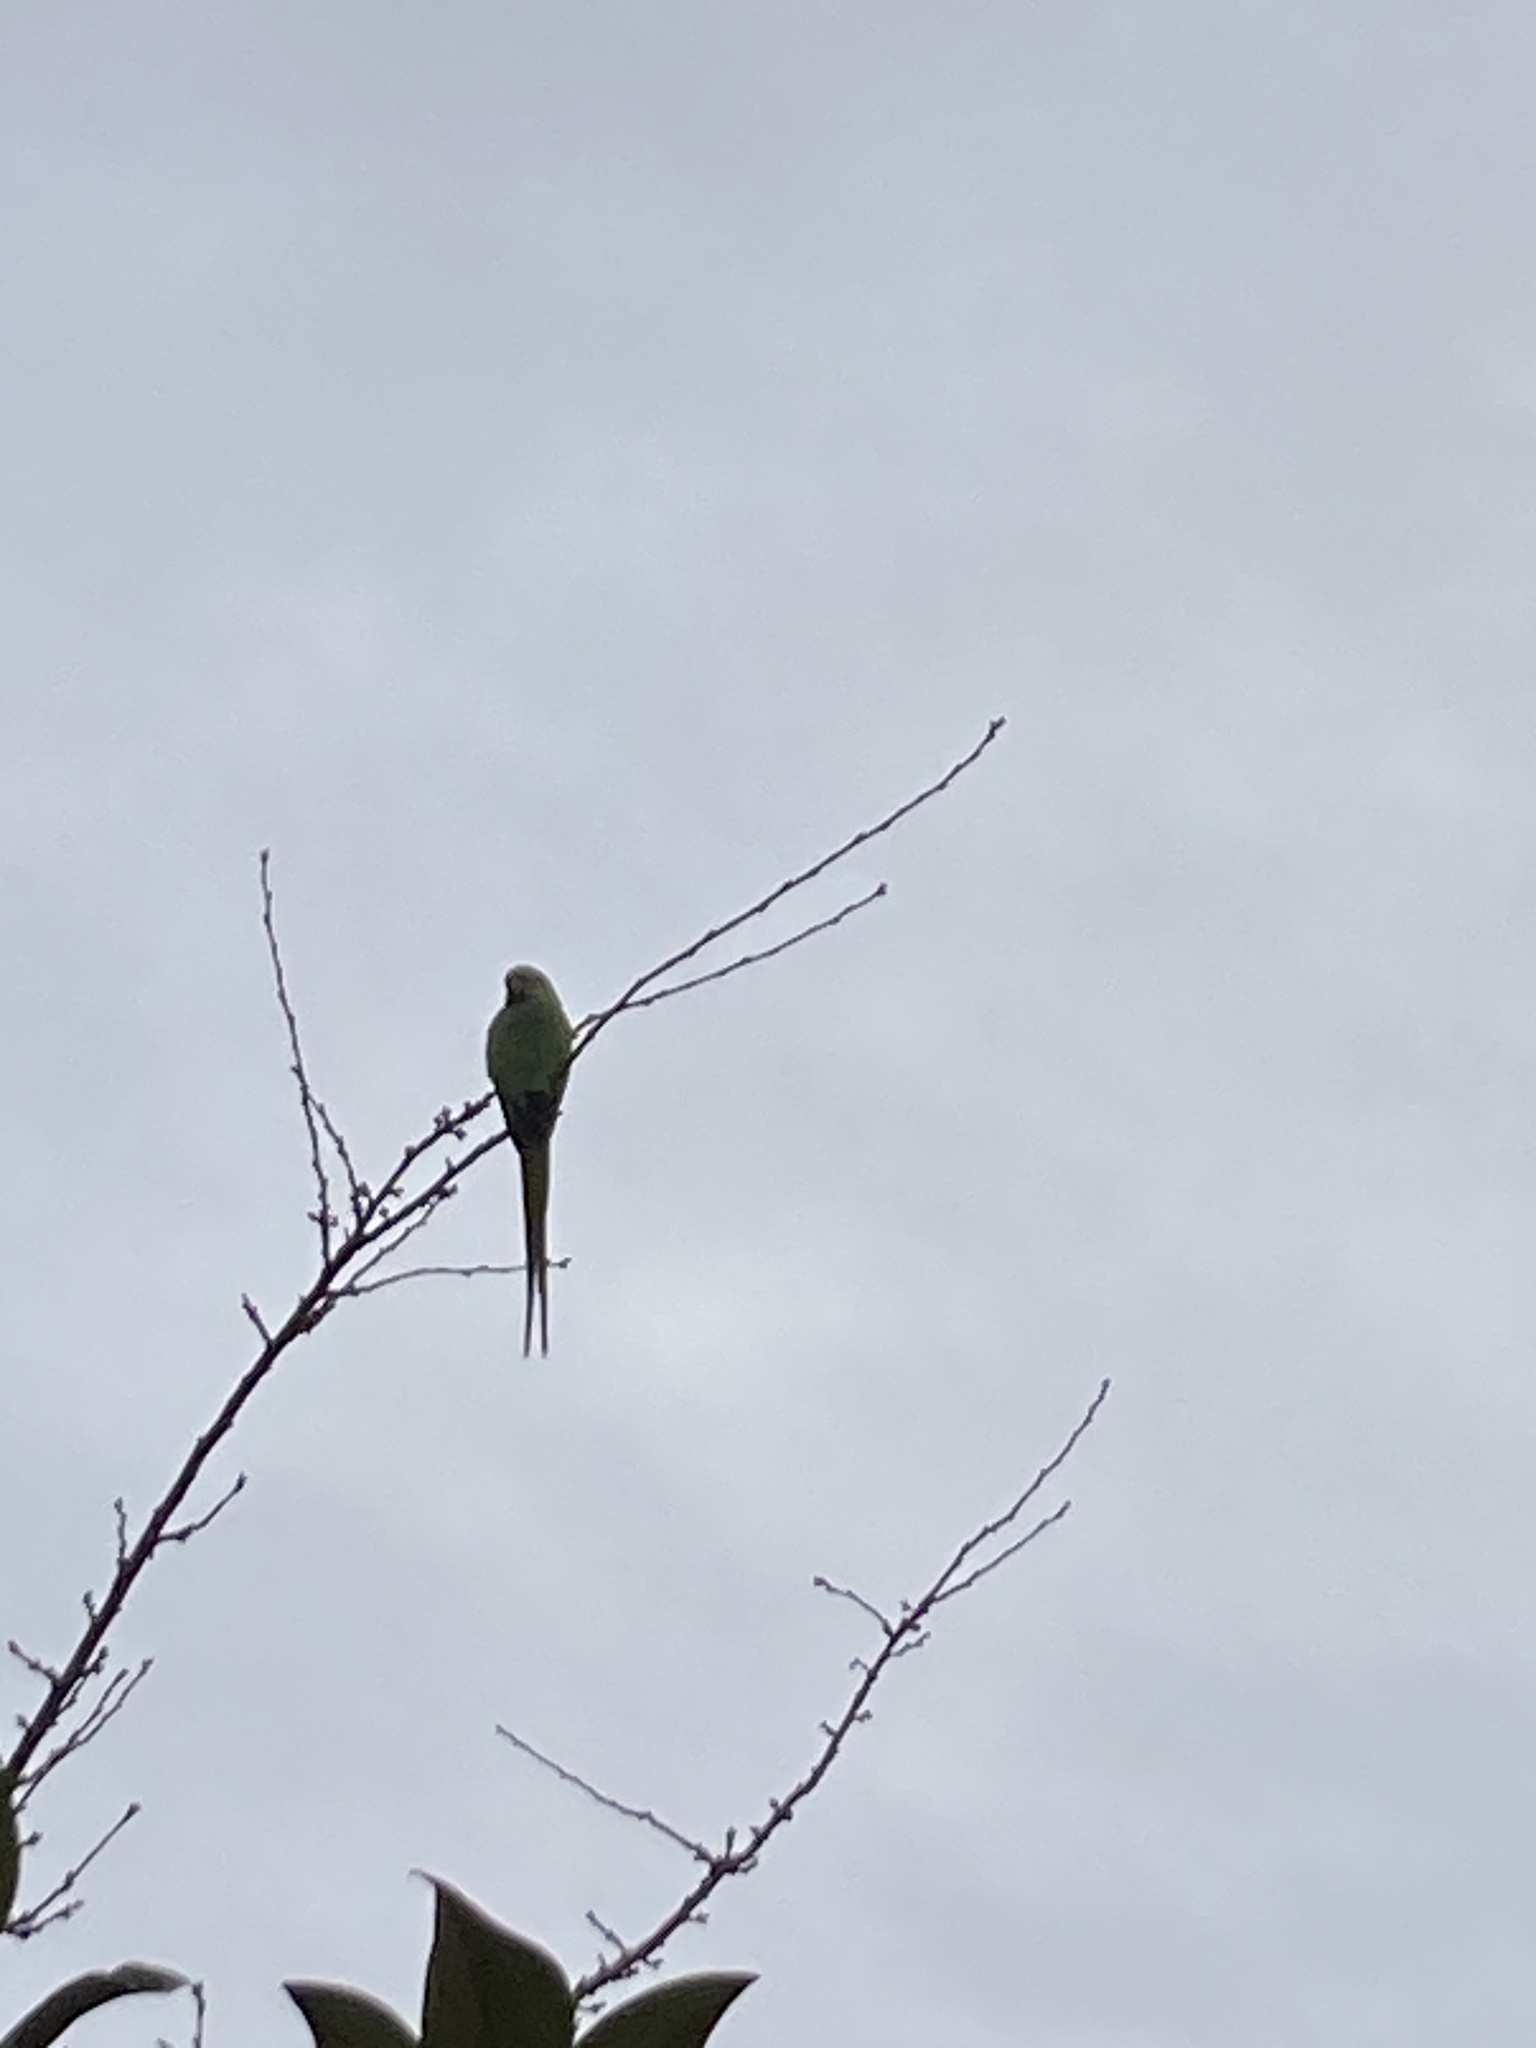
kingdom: Animalia
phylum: Chordata
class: Aves
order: Psittaciformes
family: Psittacidae
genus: Psittacula
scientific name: Psittacula krameri
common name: Rose-ringed parakeet
